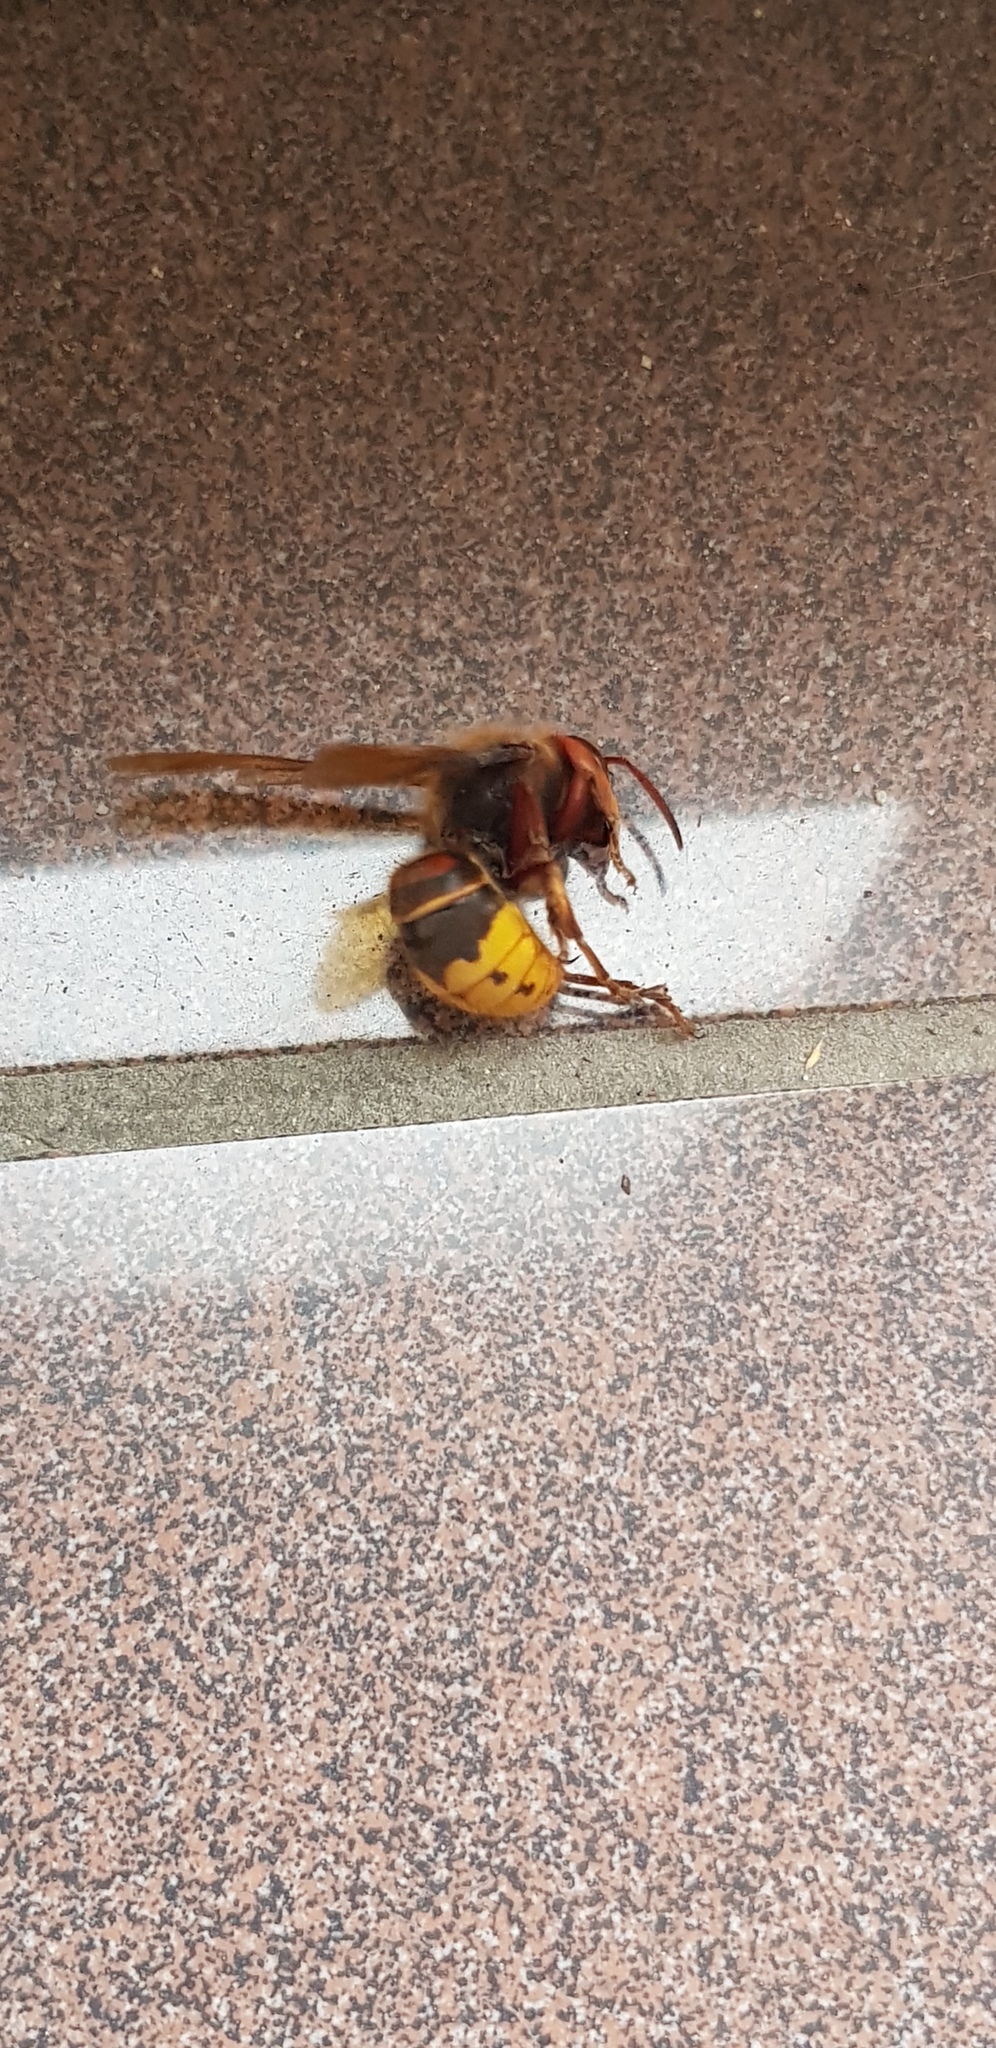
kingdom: Animalia
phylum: Arthropoda
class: Insecta
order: Hymenoptera
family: Vespidae
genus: Vespa
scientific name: Vespa crabro
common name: Hornet
